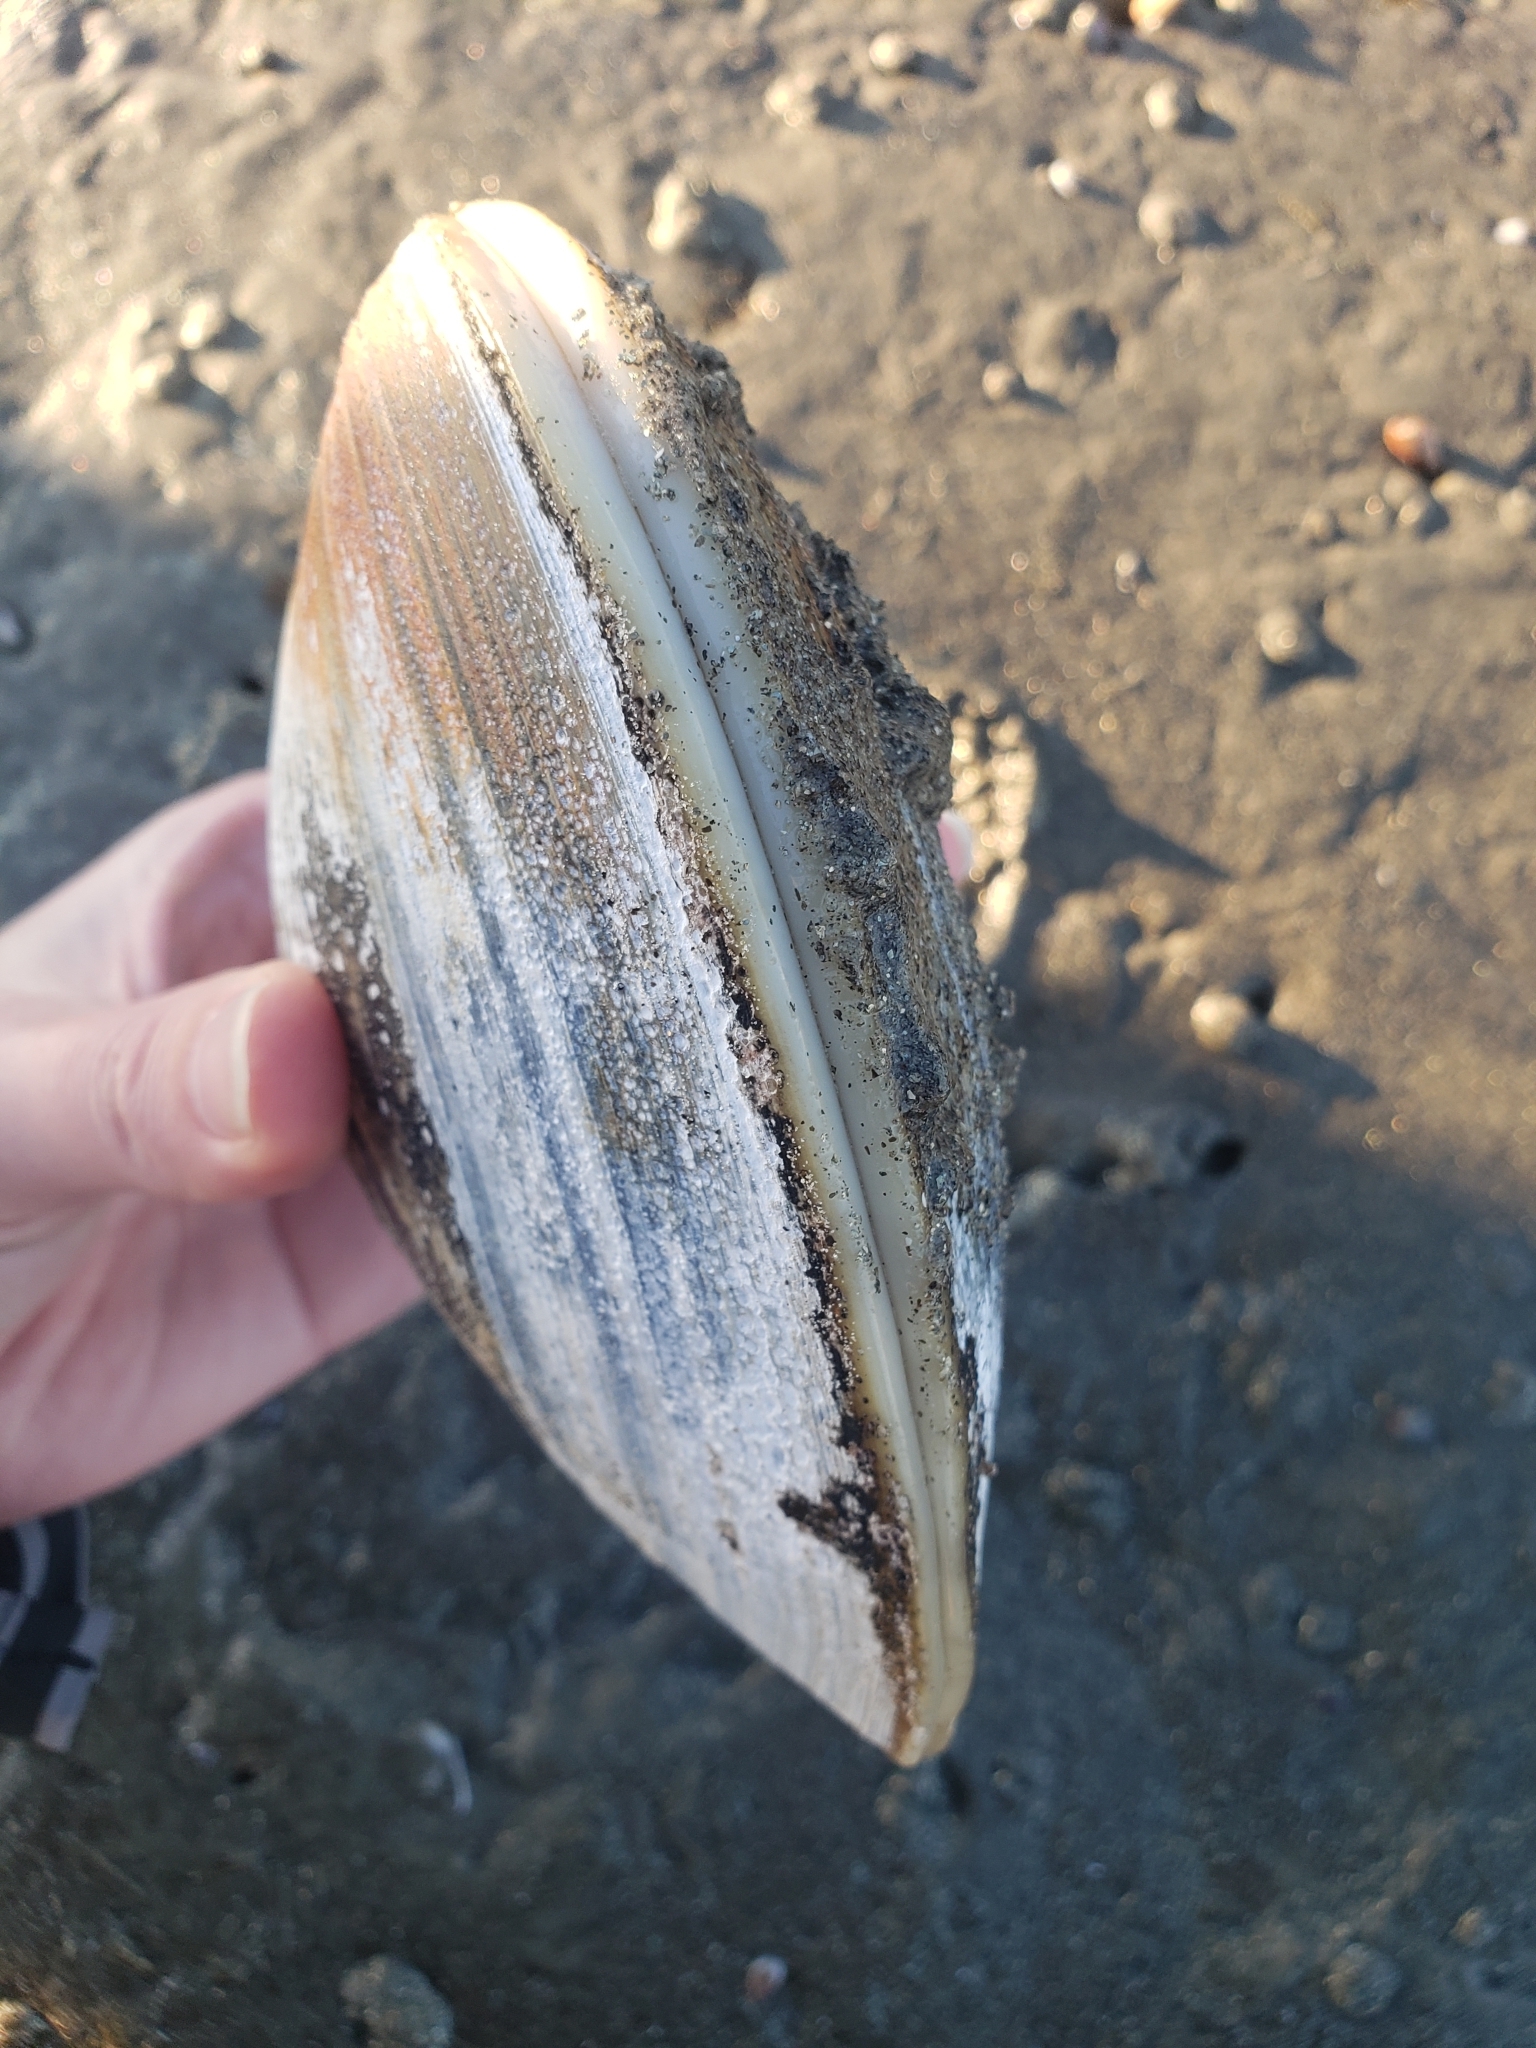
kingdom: Animalia
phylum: Mollusca
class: Bivalvia
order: Venerida
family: Veneridae
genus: Tivela
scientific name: Tivela stultorum
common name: Pismo clam
